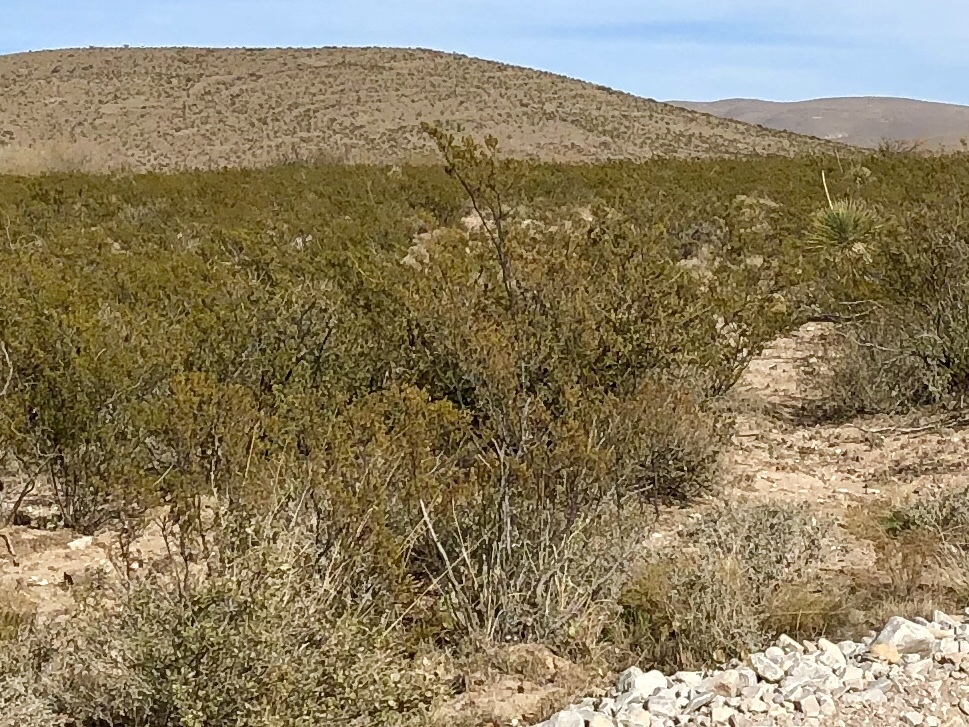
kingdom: Plantae
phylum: Tracheophyta
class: Magnoliopsida
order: Zygophyllales
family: Zygophyllaceae
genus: Larrea
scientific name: Larrea tridentata
